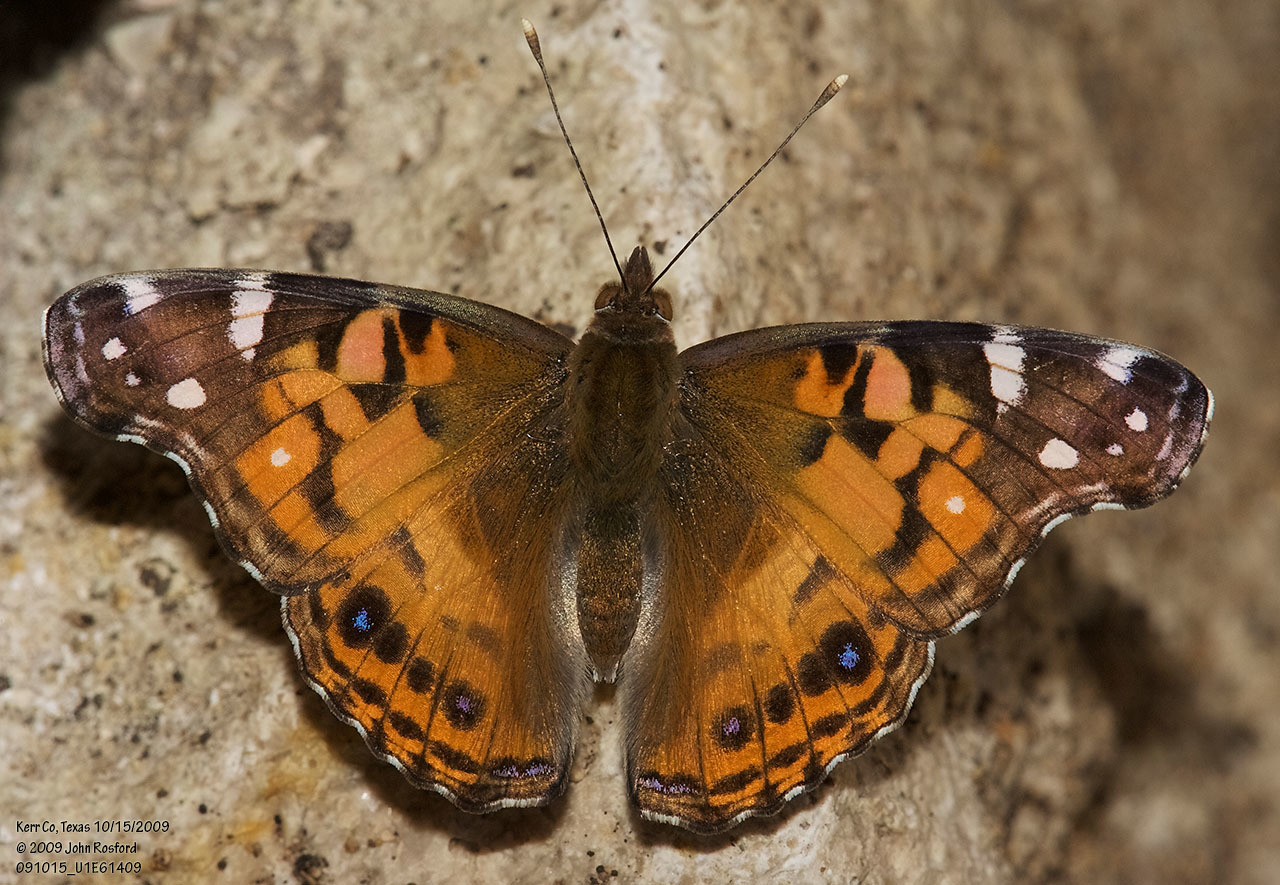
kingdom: Animalia
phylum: Arthropoda
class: Insecta
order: Lepidoptera
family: Nymphalidae
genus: Vanessa
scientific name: Vanessa virginiensis
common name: American lady
